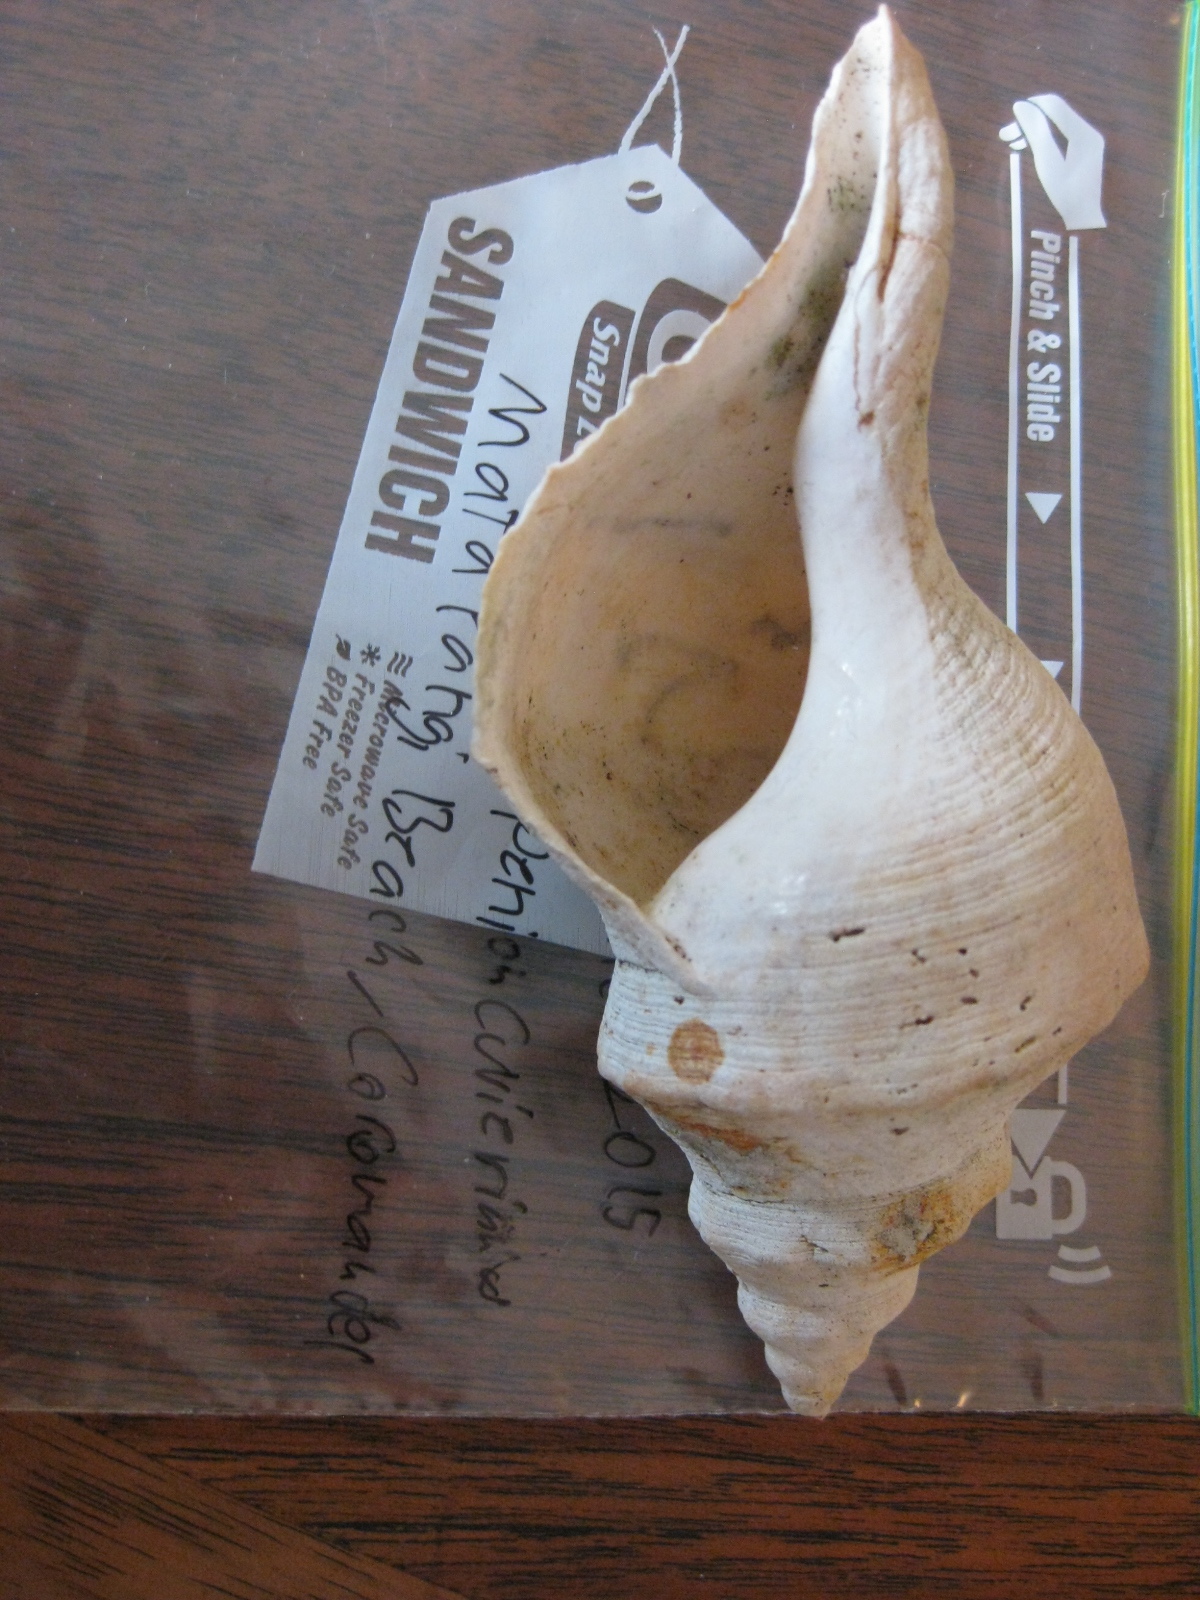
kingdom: Animalia
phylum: Mollusca
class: Gastropoda
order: Neogastropoda
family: Austrosiphonidae
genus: Penion
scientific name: Penion cuvierianus
